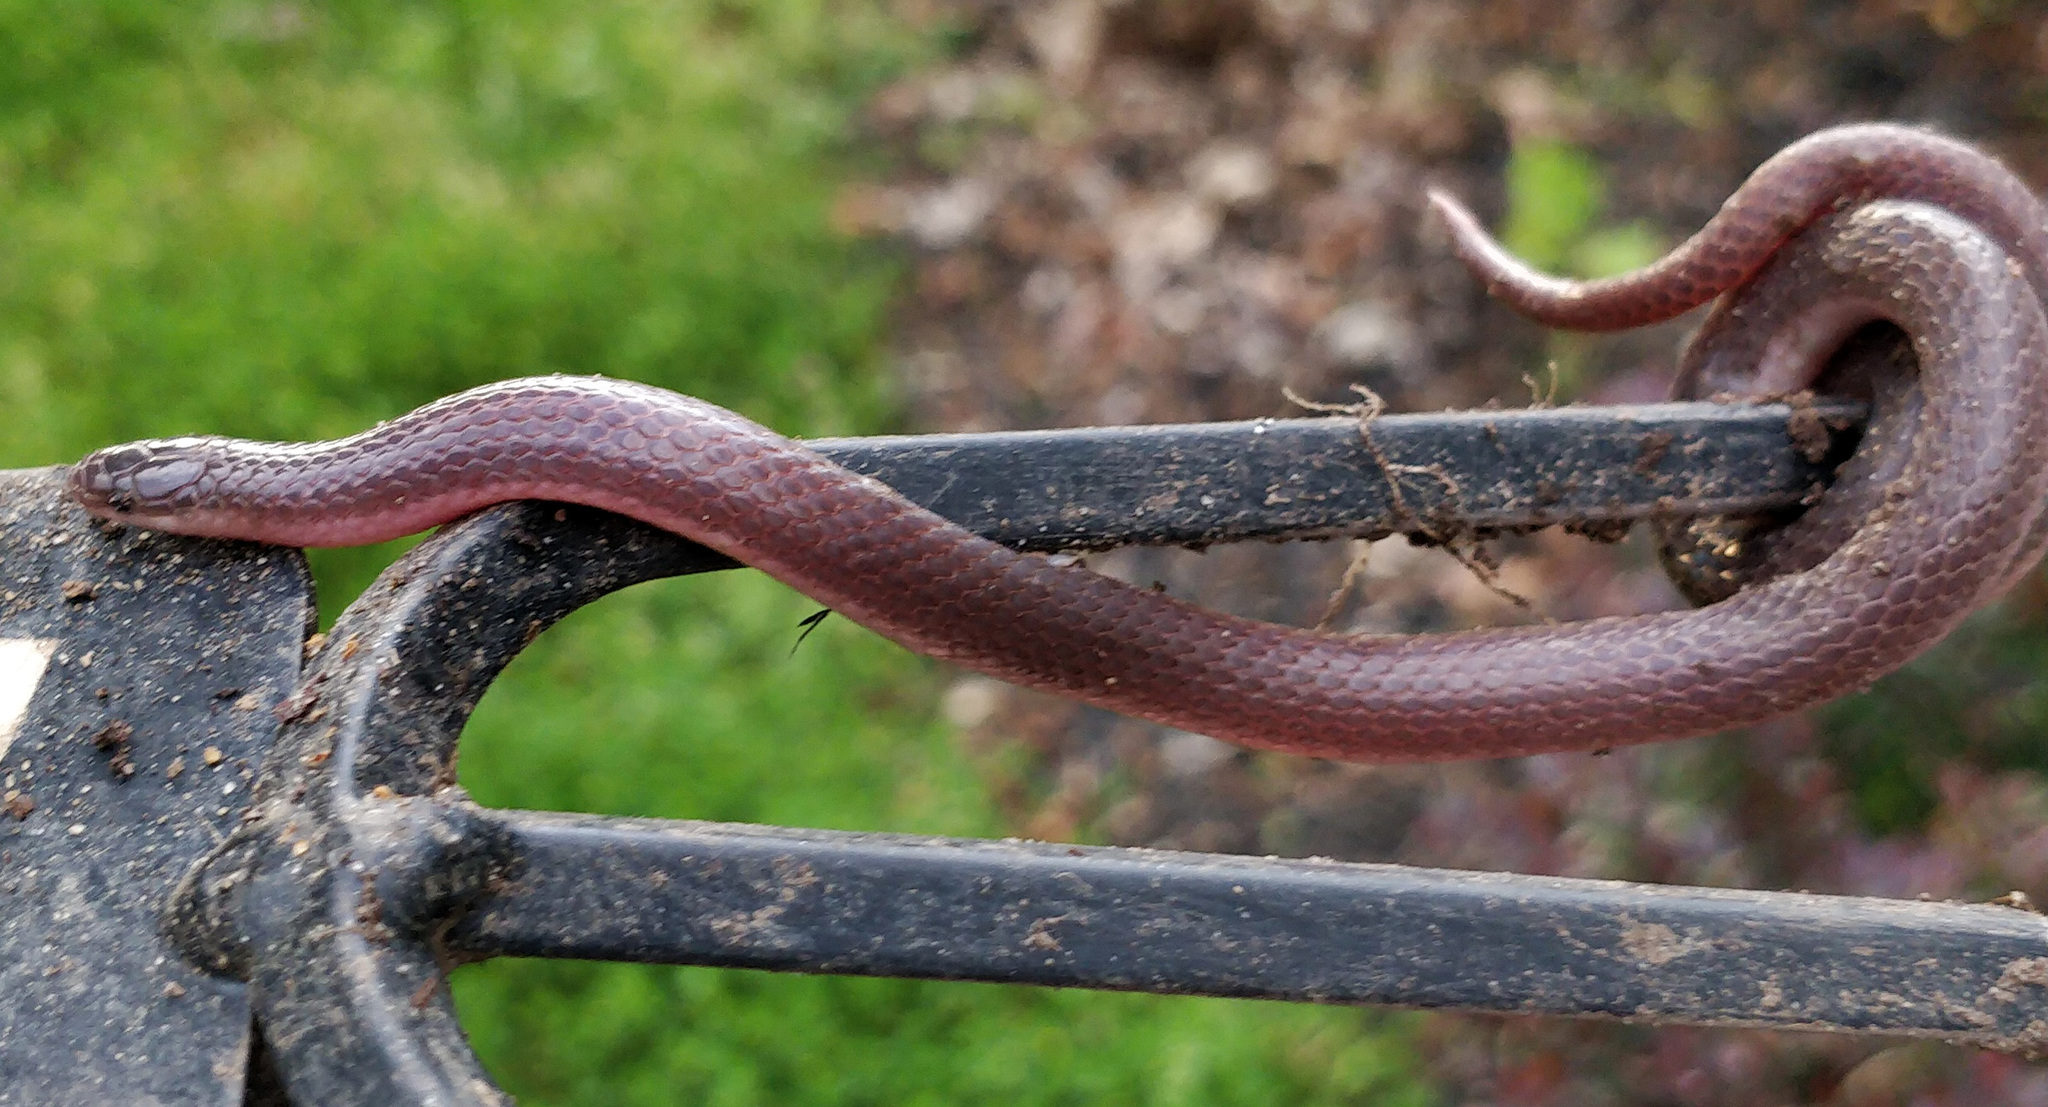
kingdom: Animalia
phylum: Chordata
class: Squamata
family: Colubridae
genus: Carphophis
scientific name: Carphophis amoenus
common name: Eastern worm snake
